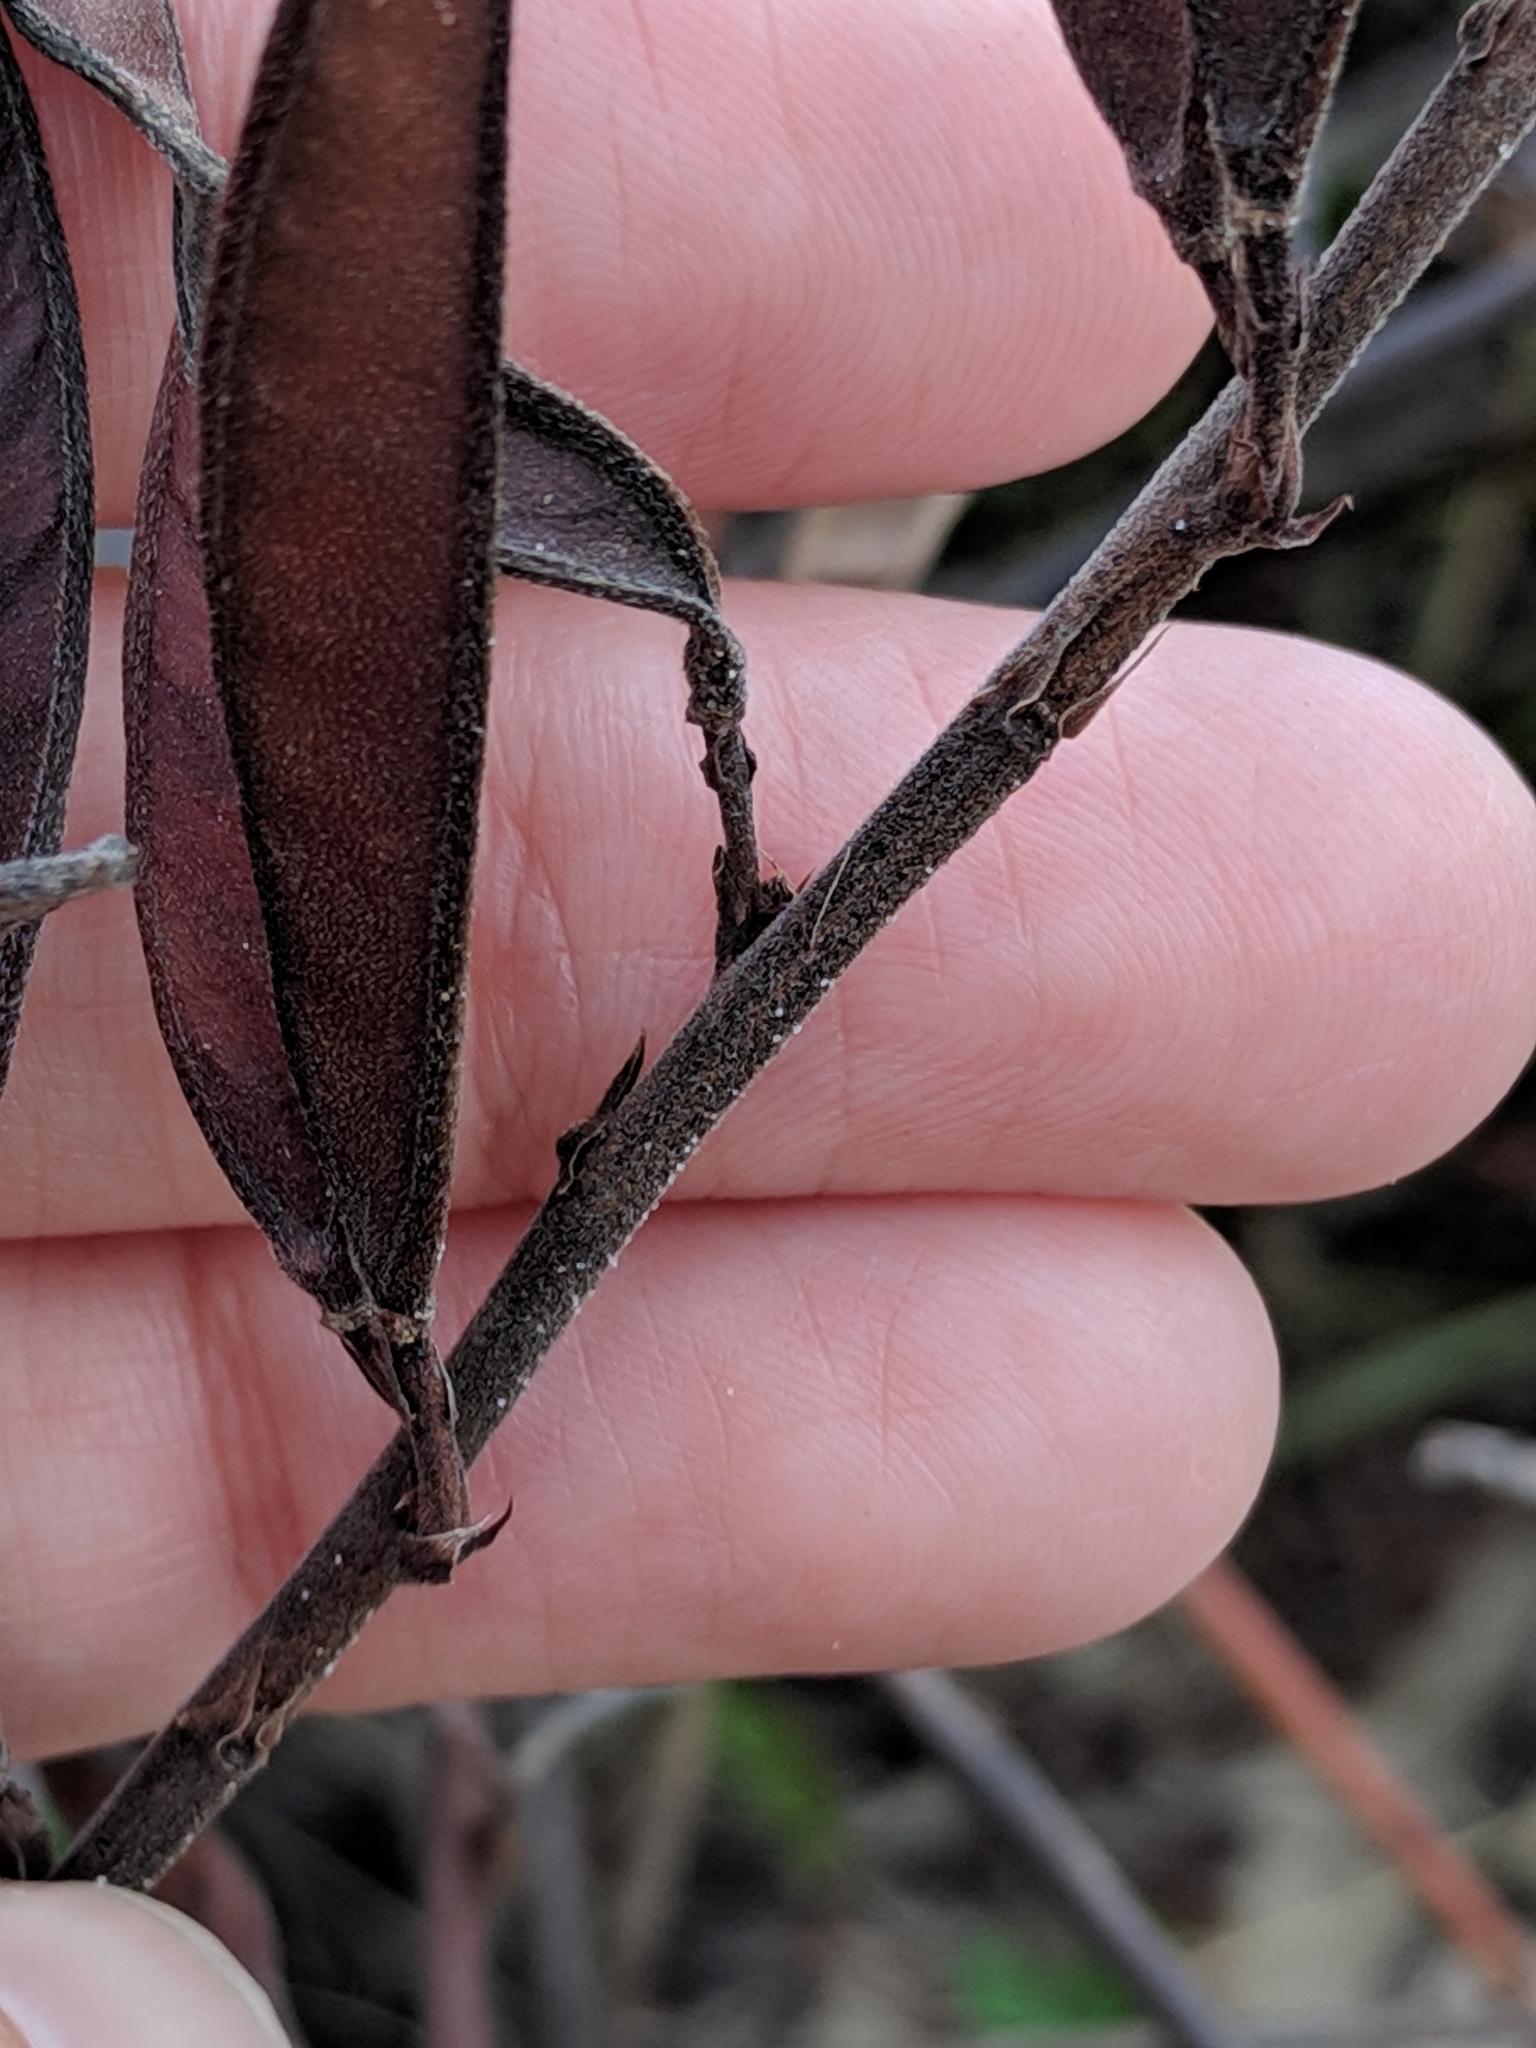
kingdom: Plantae
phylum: Tracheophyta
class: Magnoliopsida
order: Fabales
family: Fabaceae
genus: Chamaecrista
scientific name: Chamaecrista fasciculata
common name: Golden cassia
